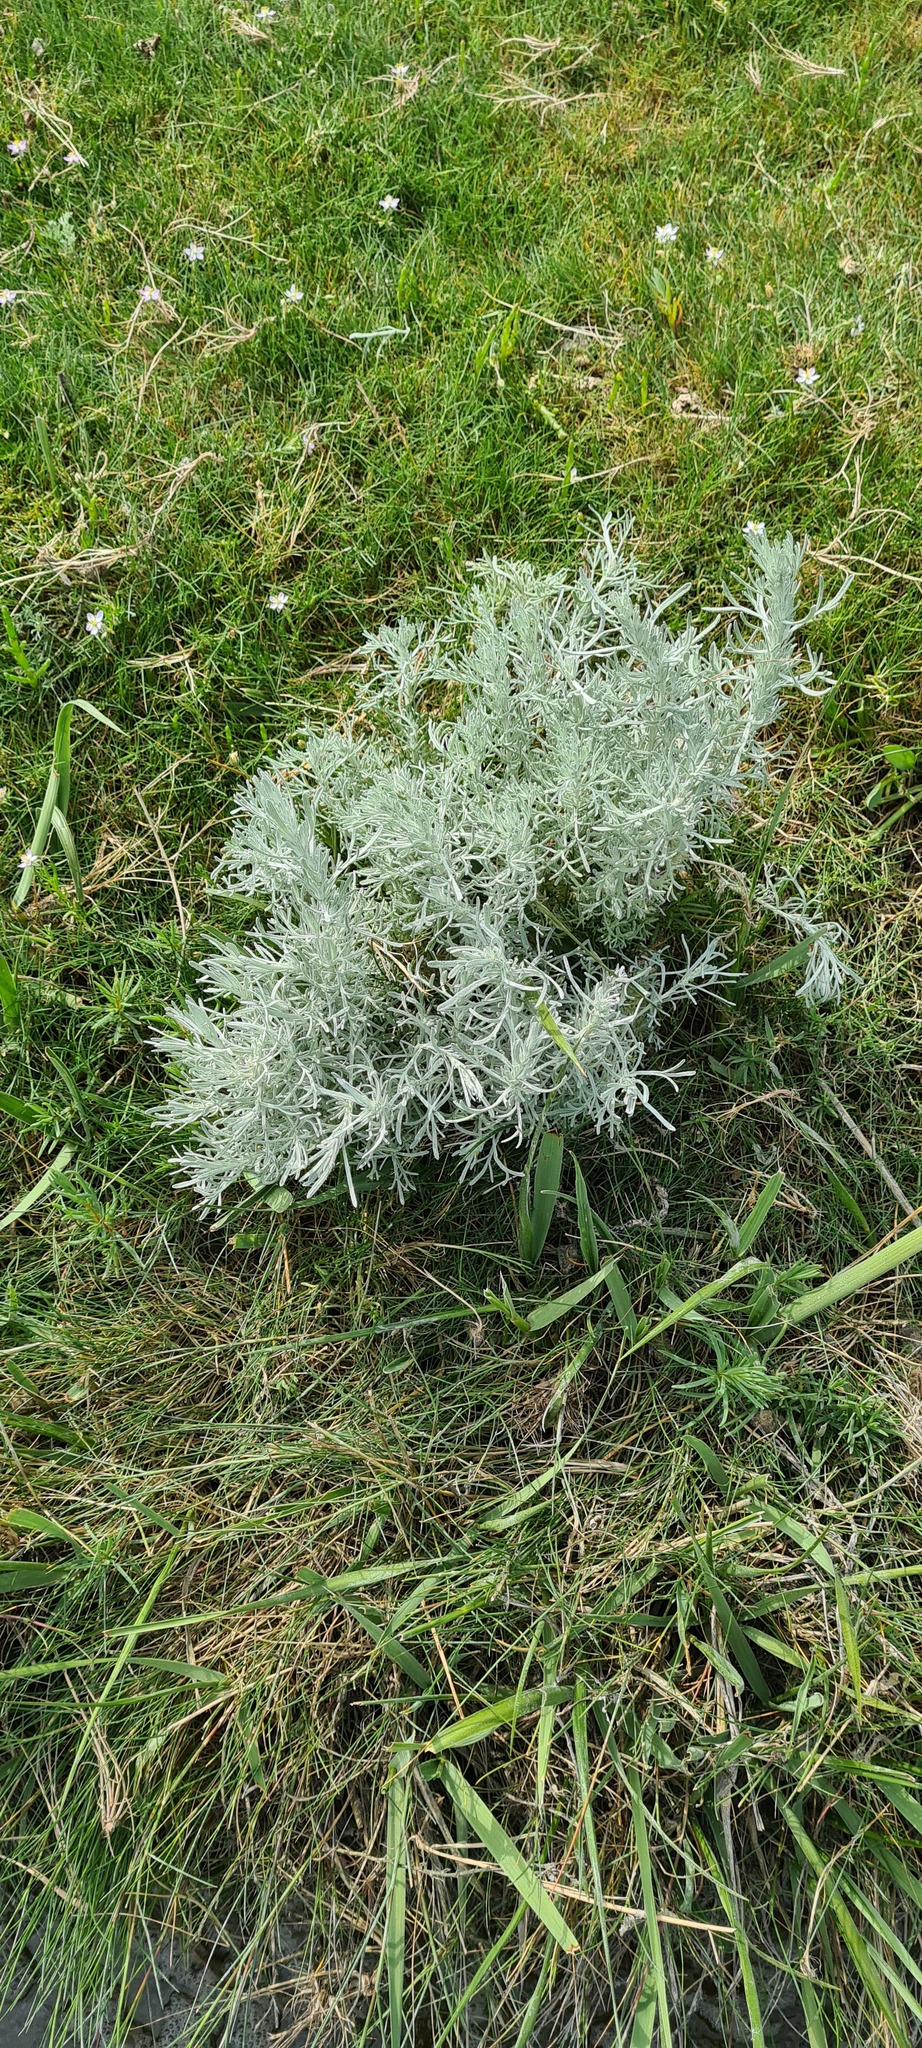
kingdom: Plantae
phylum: Tracheophyta
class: Magnoliopsida
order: Asterales
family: Asteraceae
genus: Artemisia
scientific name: Artemisia maritima
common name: Wormseed
